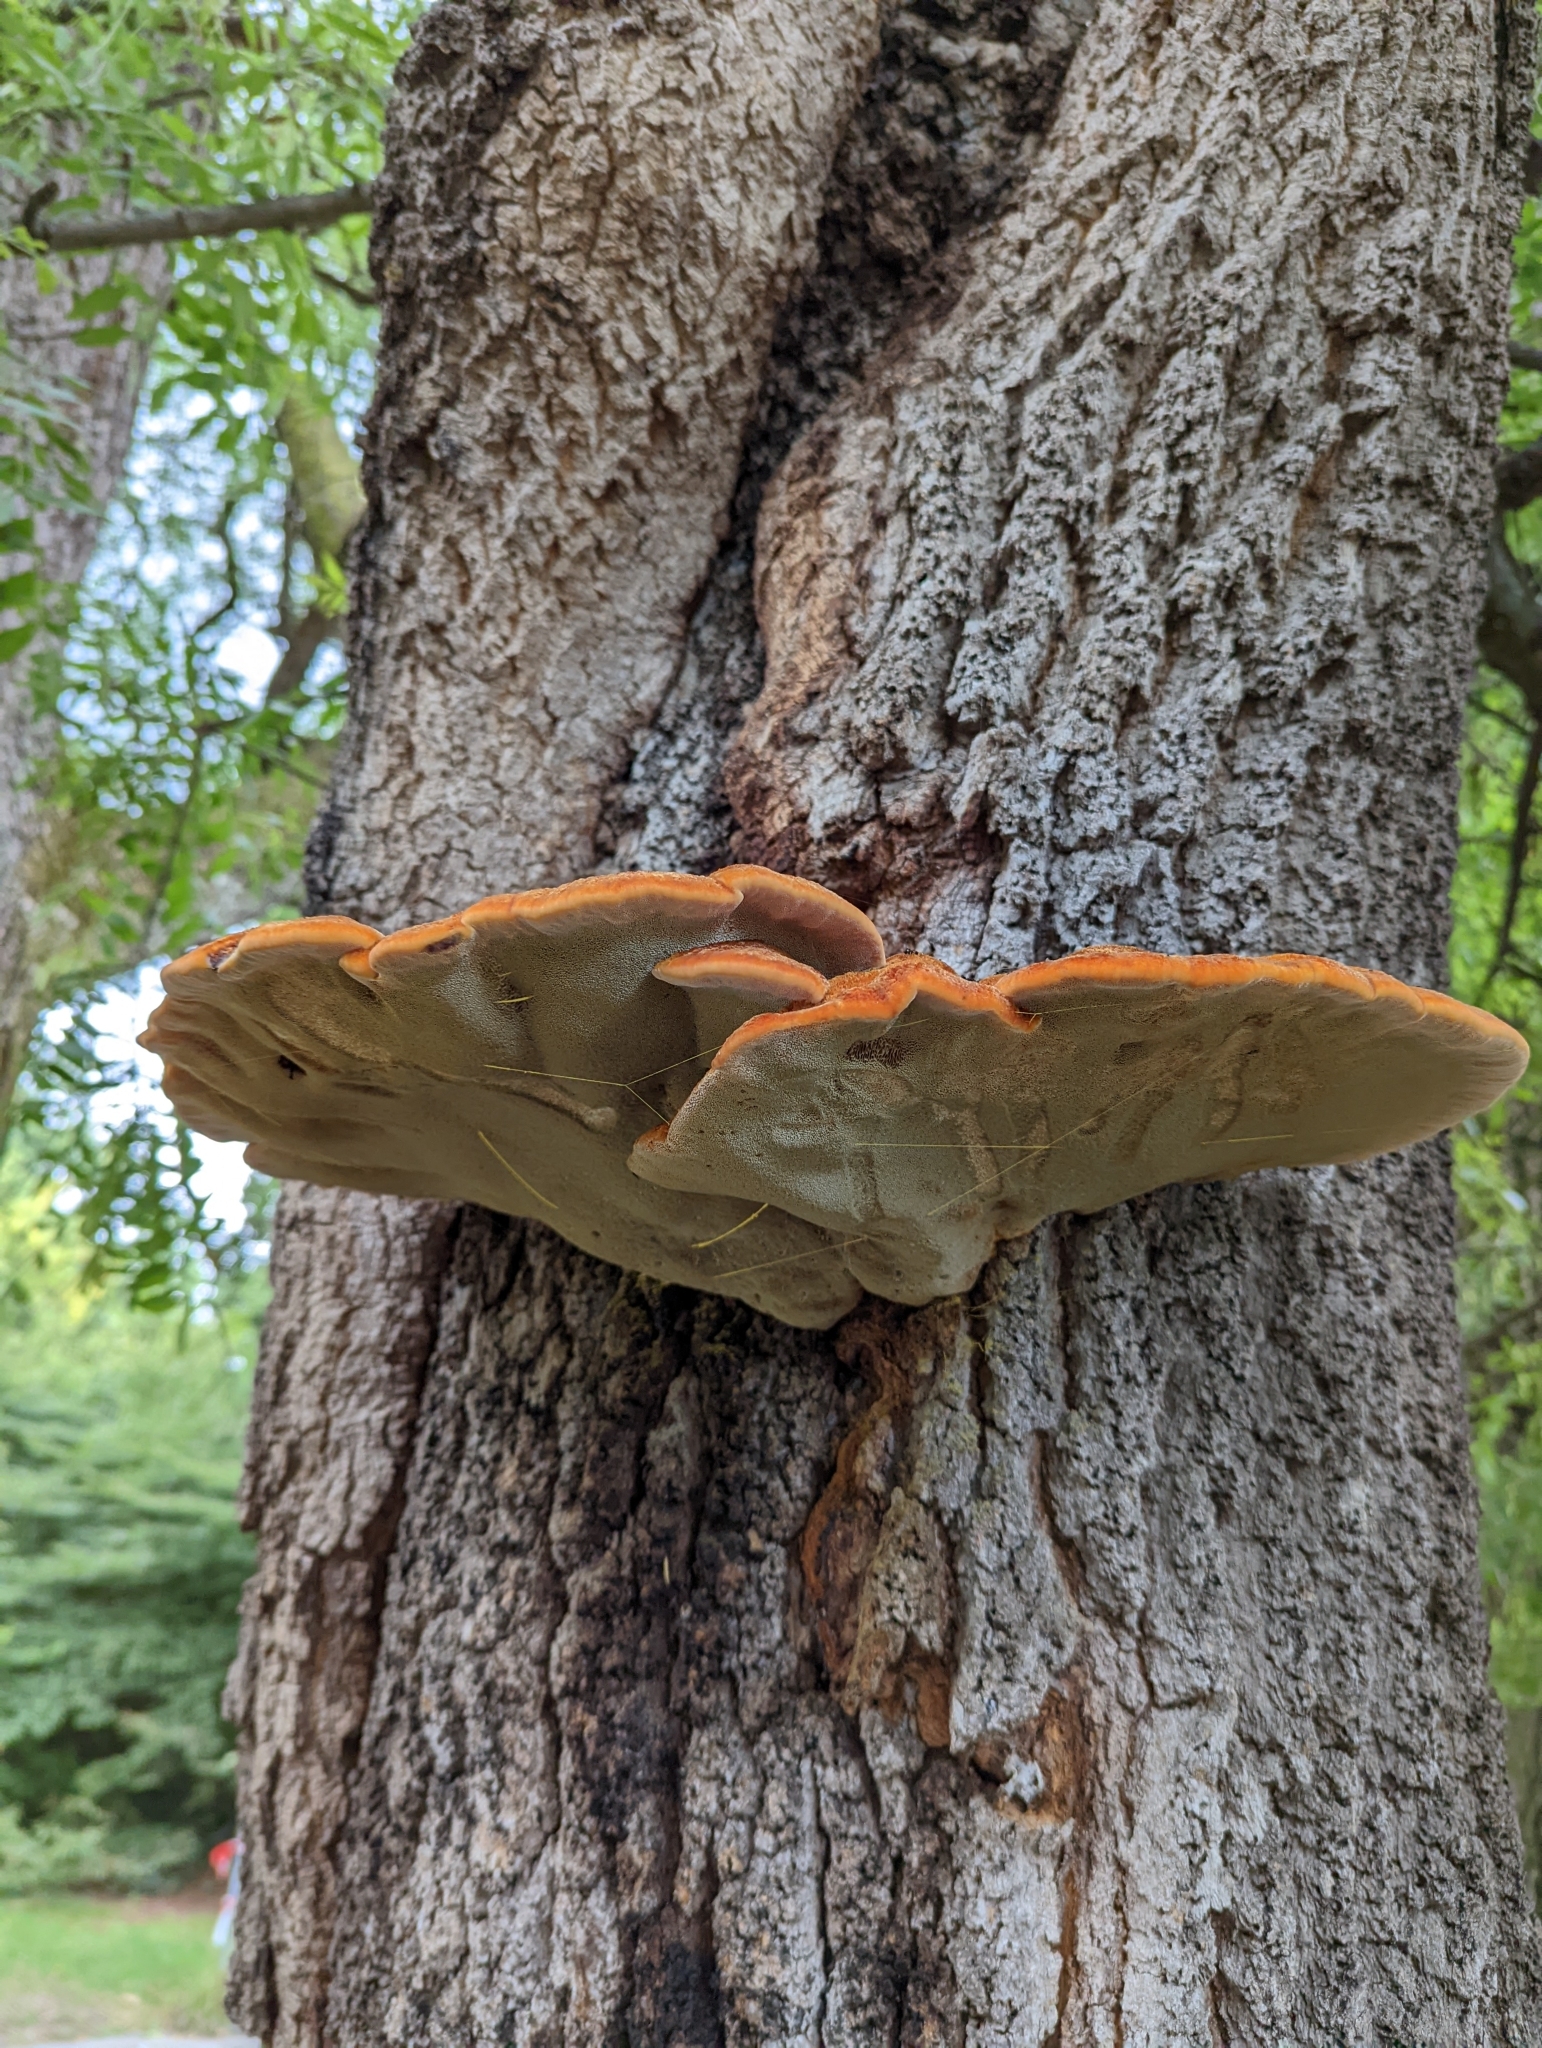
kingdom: Fungi
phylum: Basidiomycota
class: Agaricomycetes
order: Hymenochaetales
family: Hymenochaetaceae
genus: Inonotus
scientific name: Inonotus hispidus
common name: Shaggy bracket
